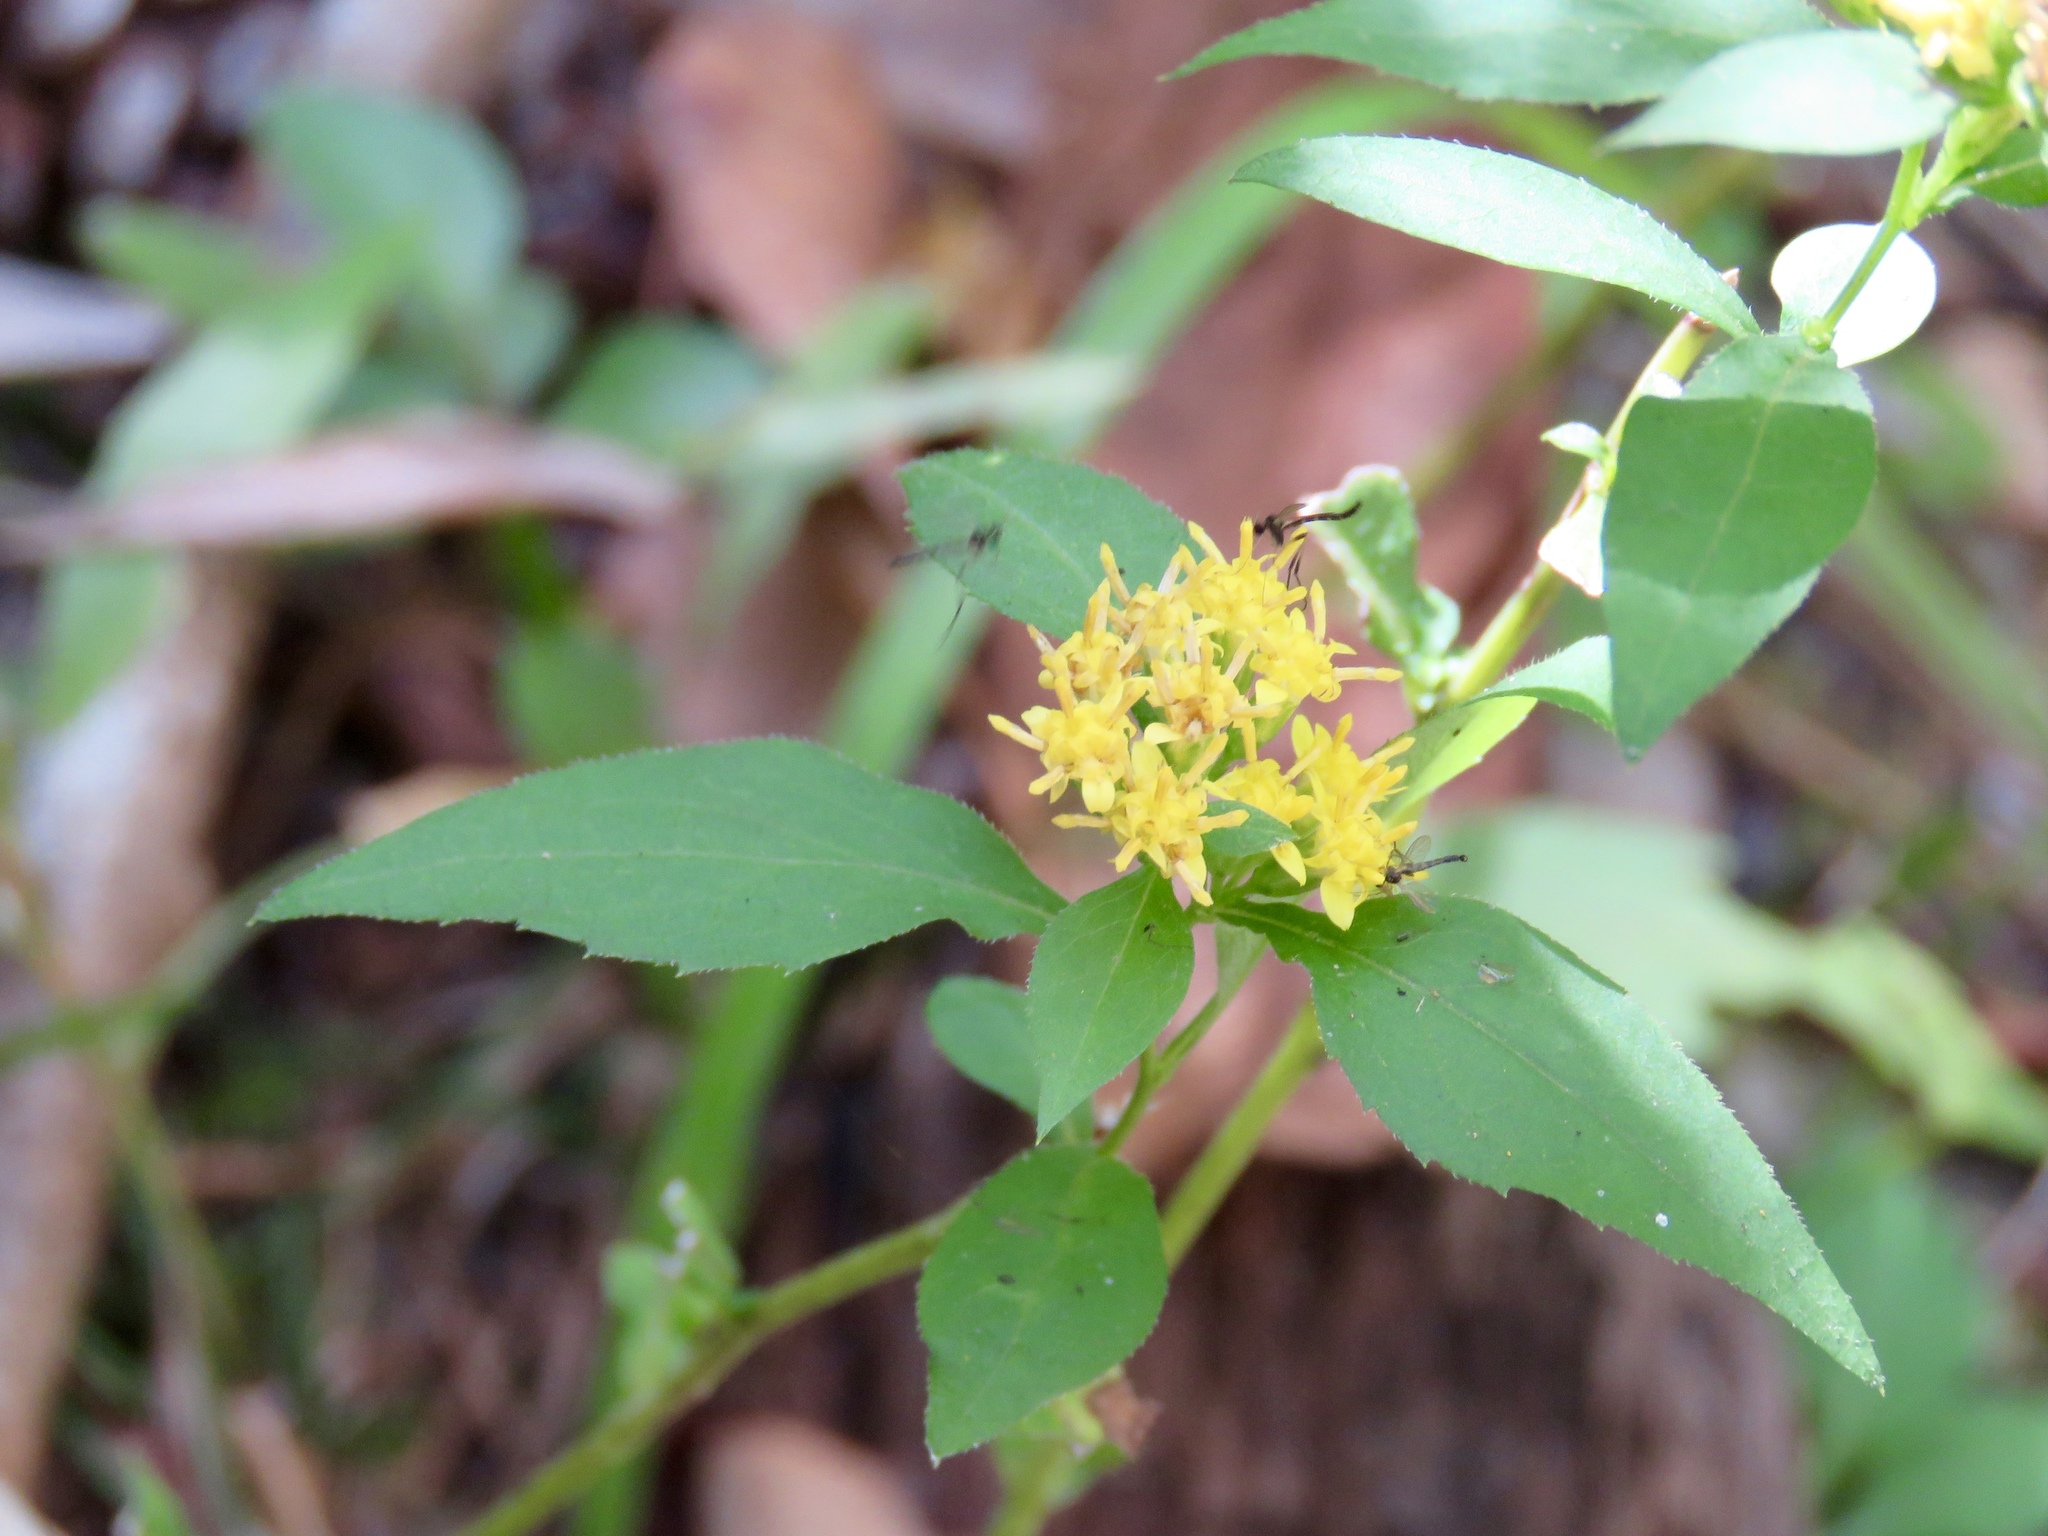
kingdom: Plantae
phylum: Tracheophyta
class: Magnoliopsida
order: Asterales
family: Asteraceae
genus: Solidago
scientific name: Solidago caesia
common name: Woodland goldenrod
